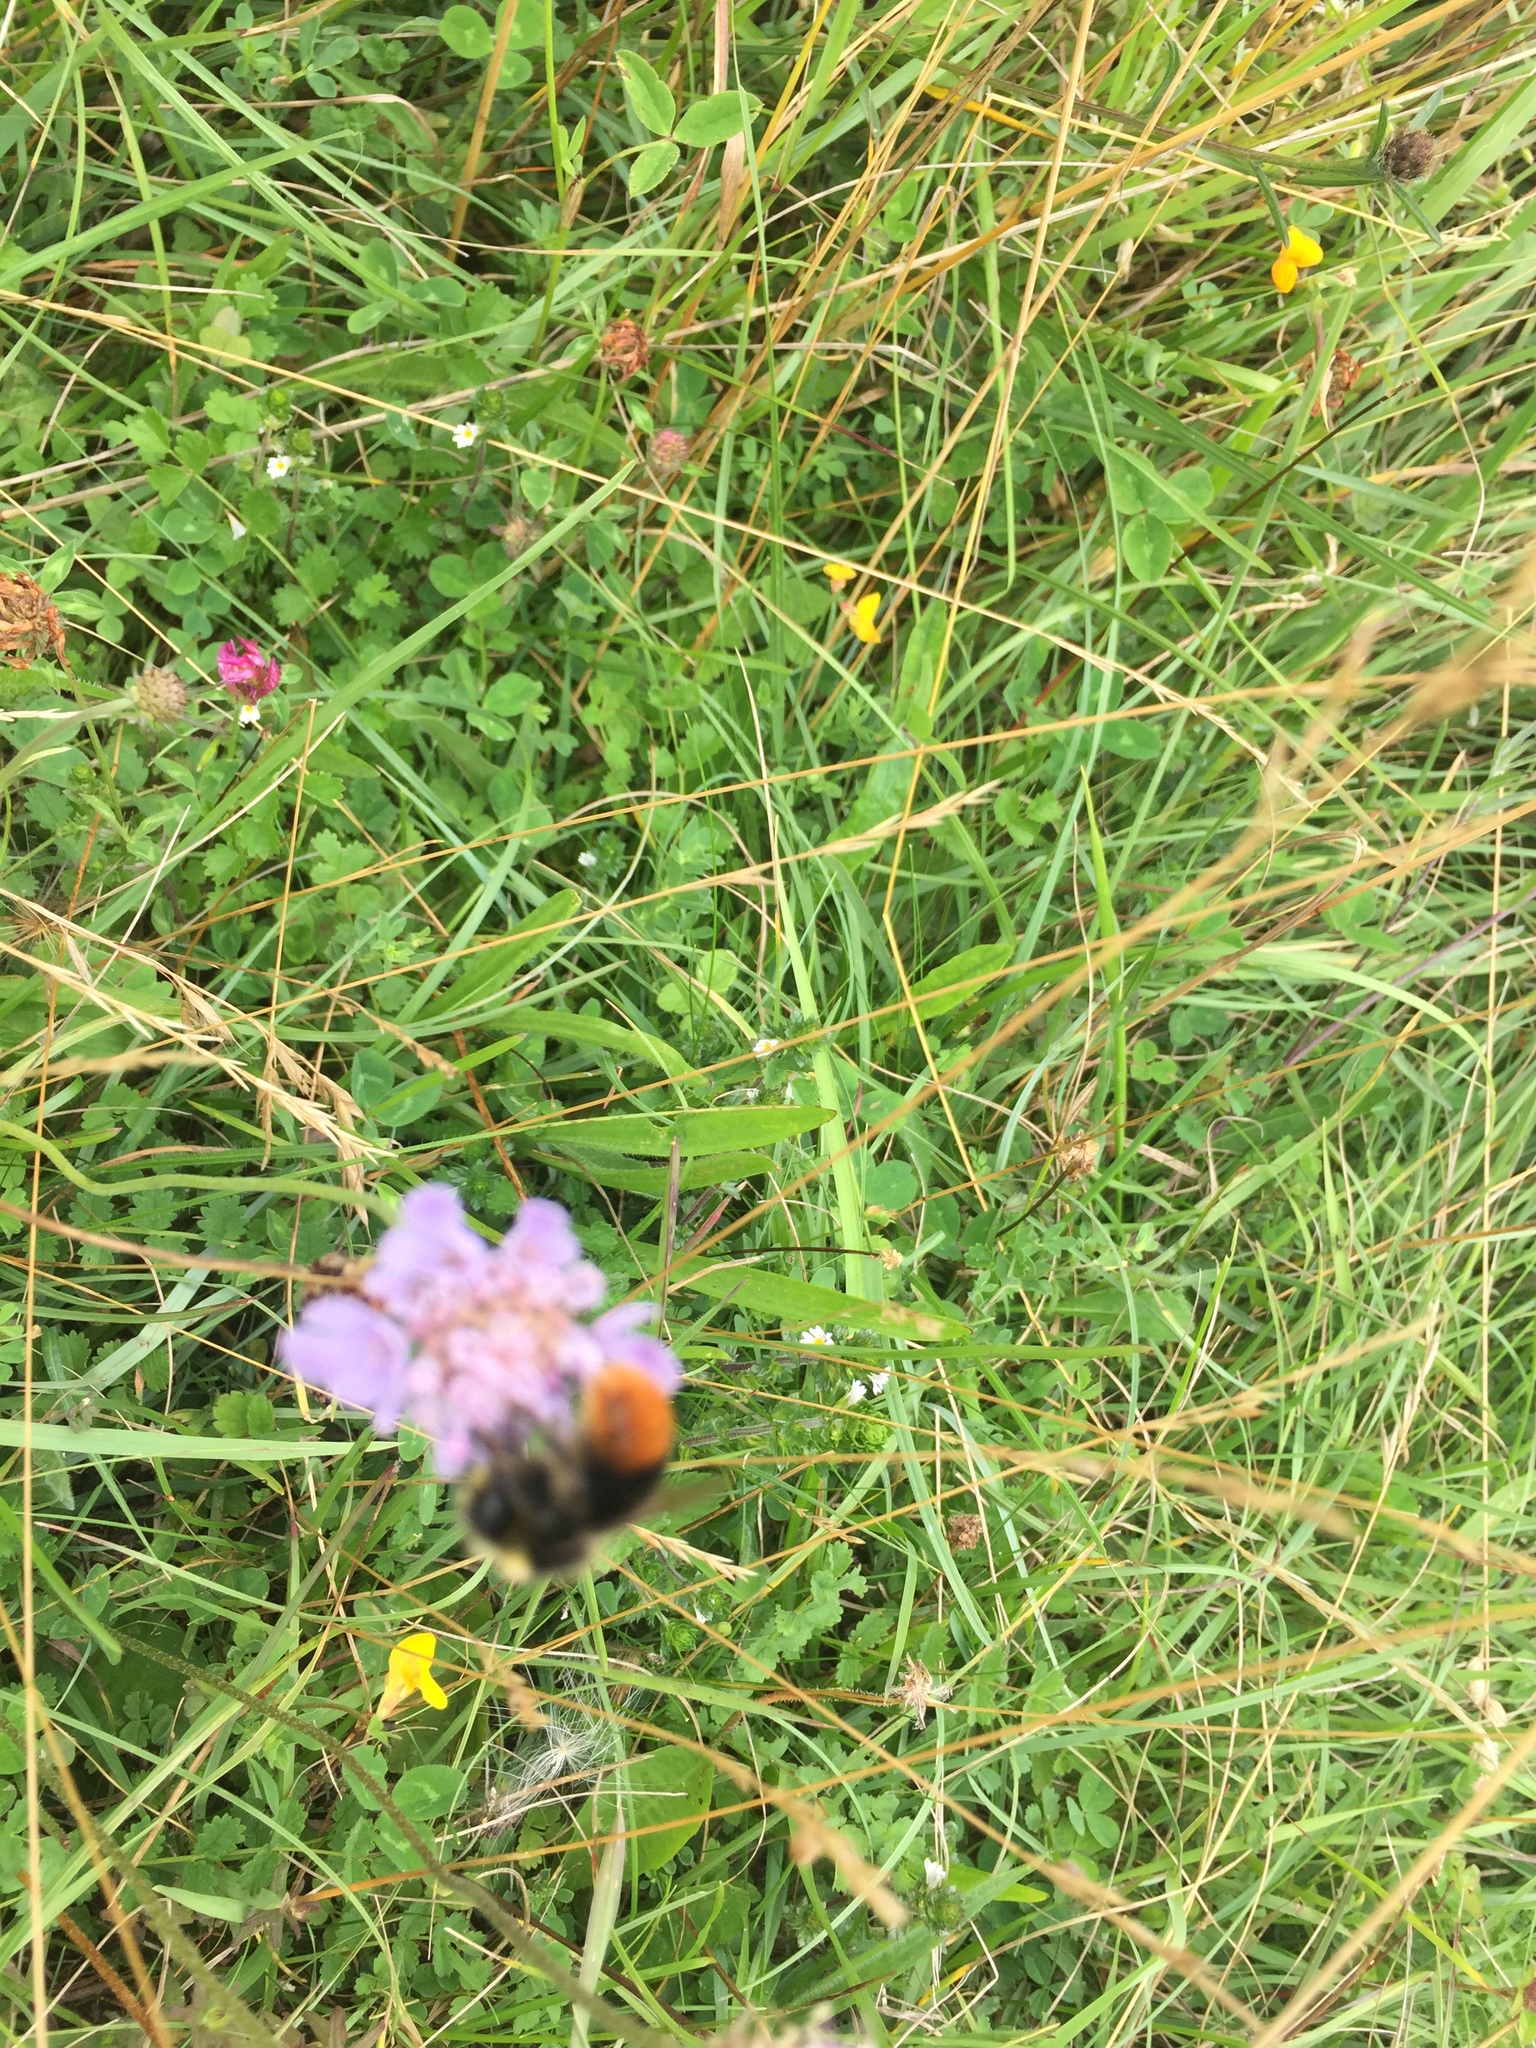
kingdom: Plantae
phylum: Tracheophyta
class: Magnoliopsida
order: Dipsacales
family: Caprifoliaceae
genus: Knautia
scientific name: Knautia arvensis
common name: Field scabiosa
